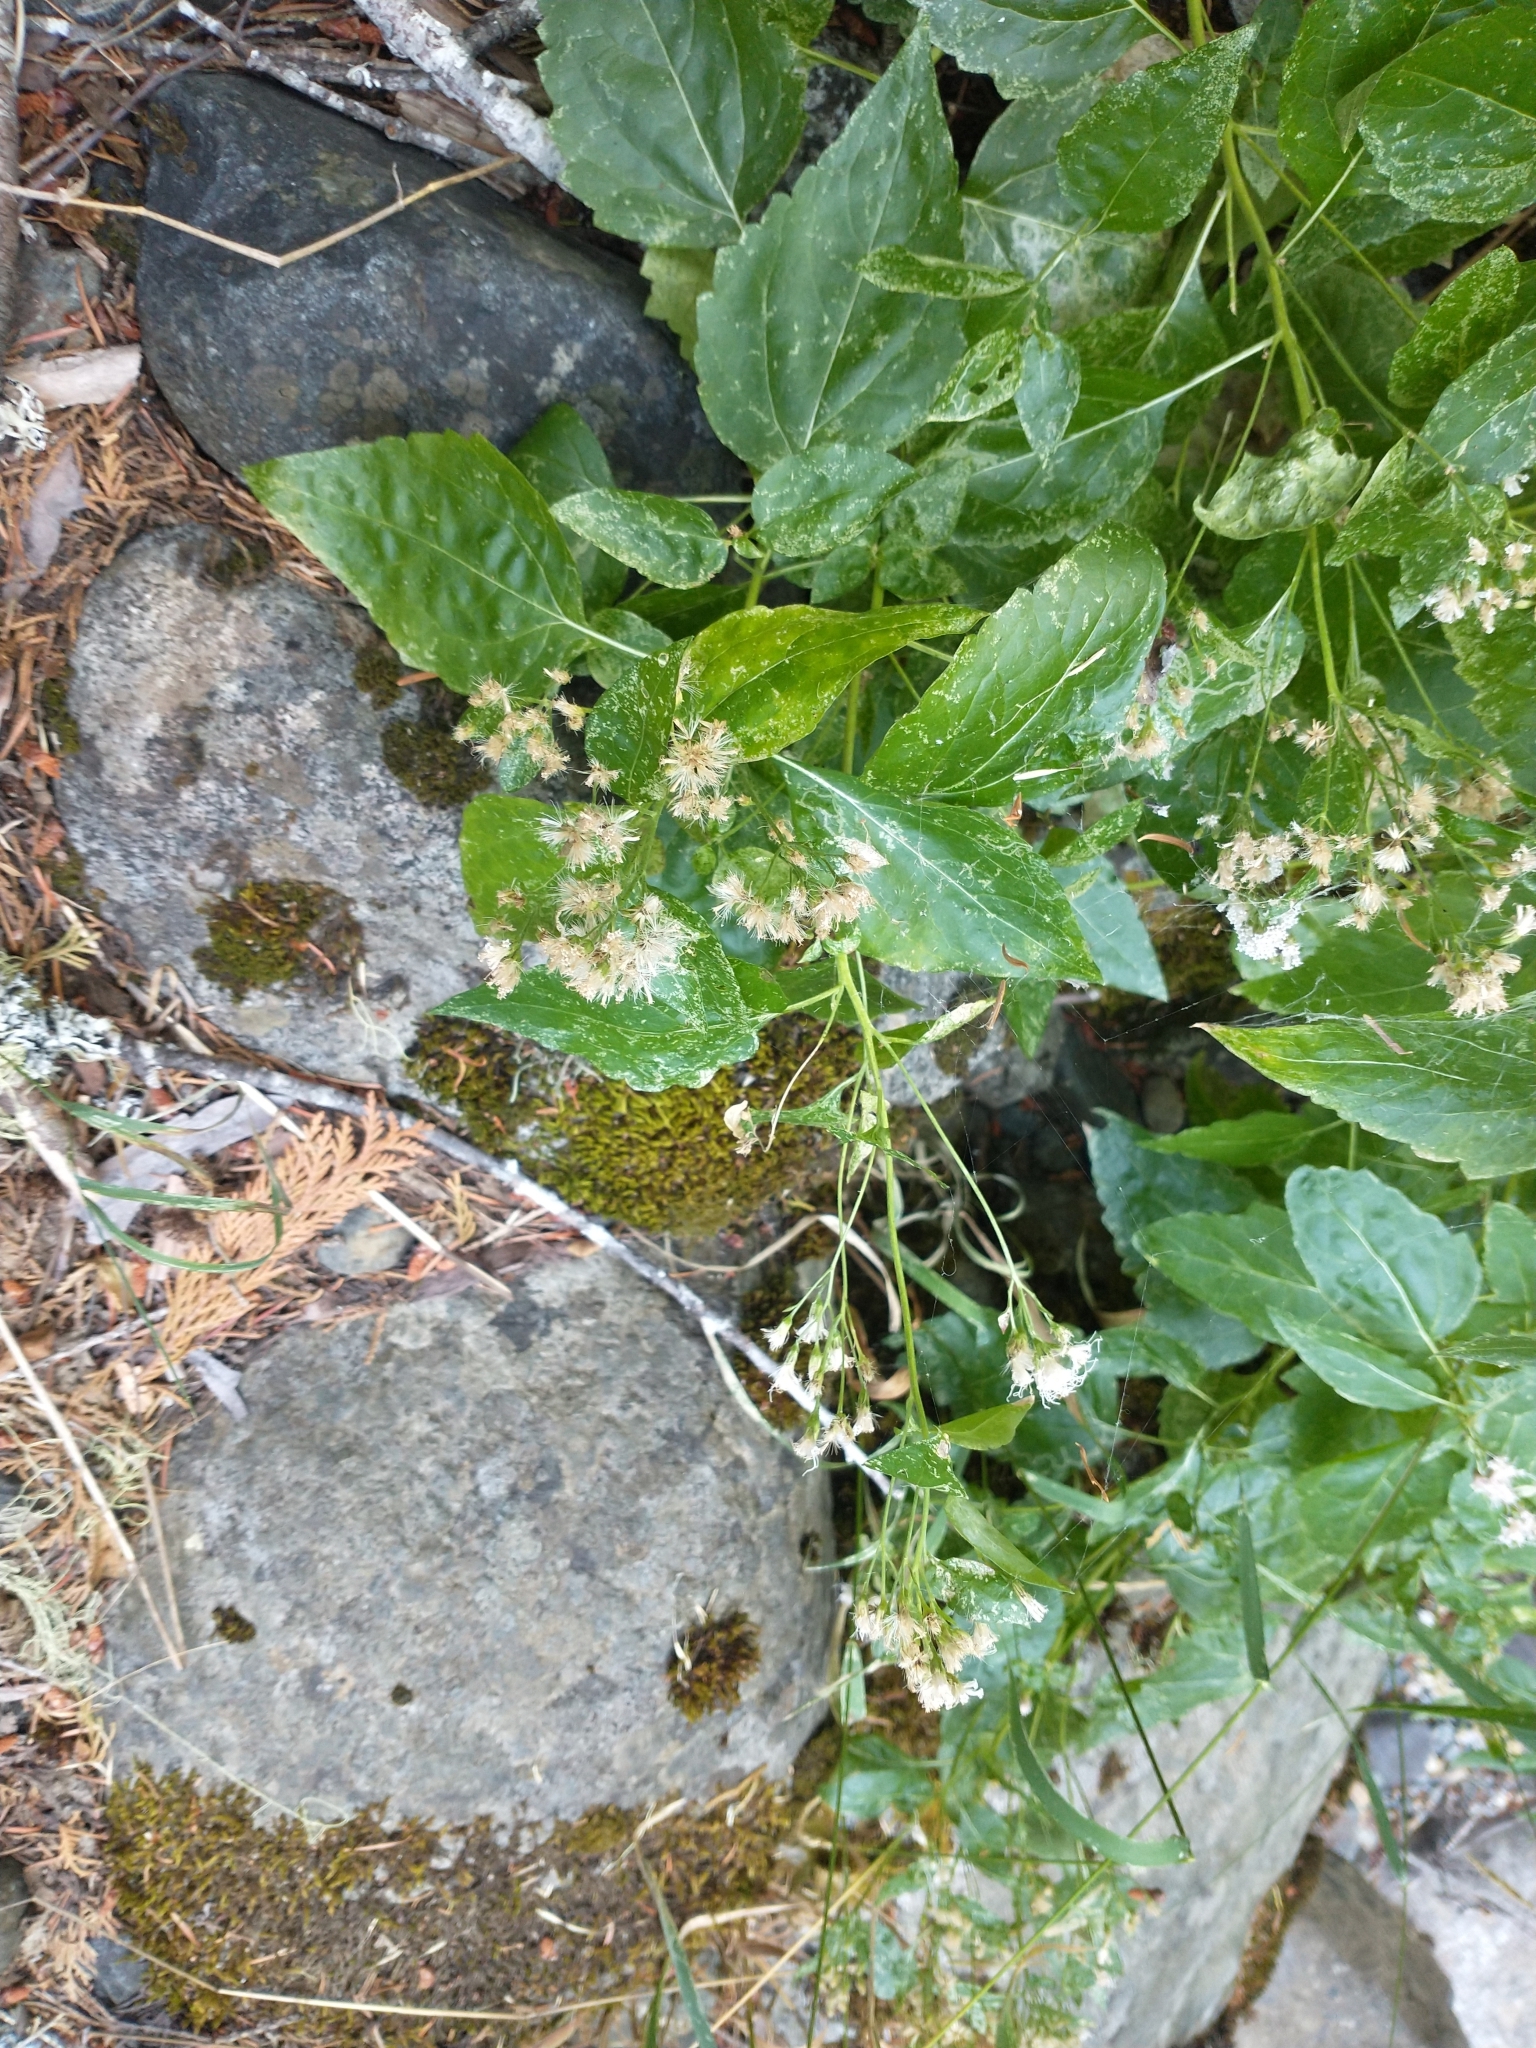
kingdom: Plantae
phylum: Tracheophyta
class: Magnoliopsida
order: Asterales
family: Asteraceae
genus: Ageratina
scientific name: Ageratina occidentalis
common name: Western snakeroot
